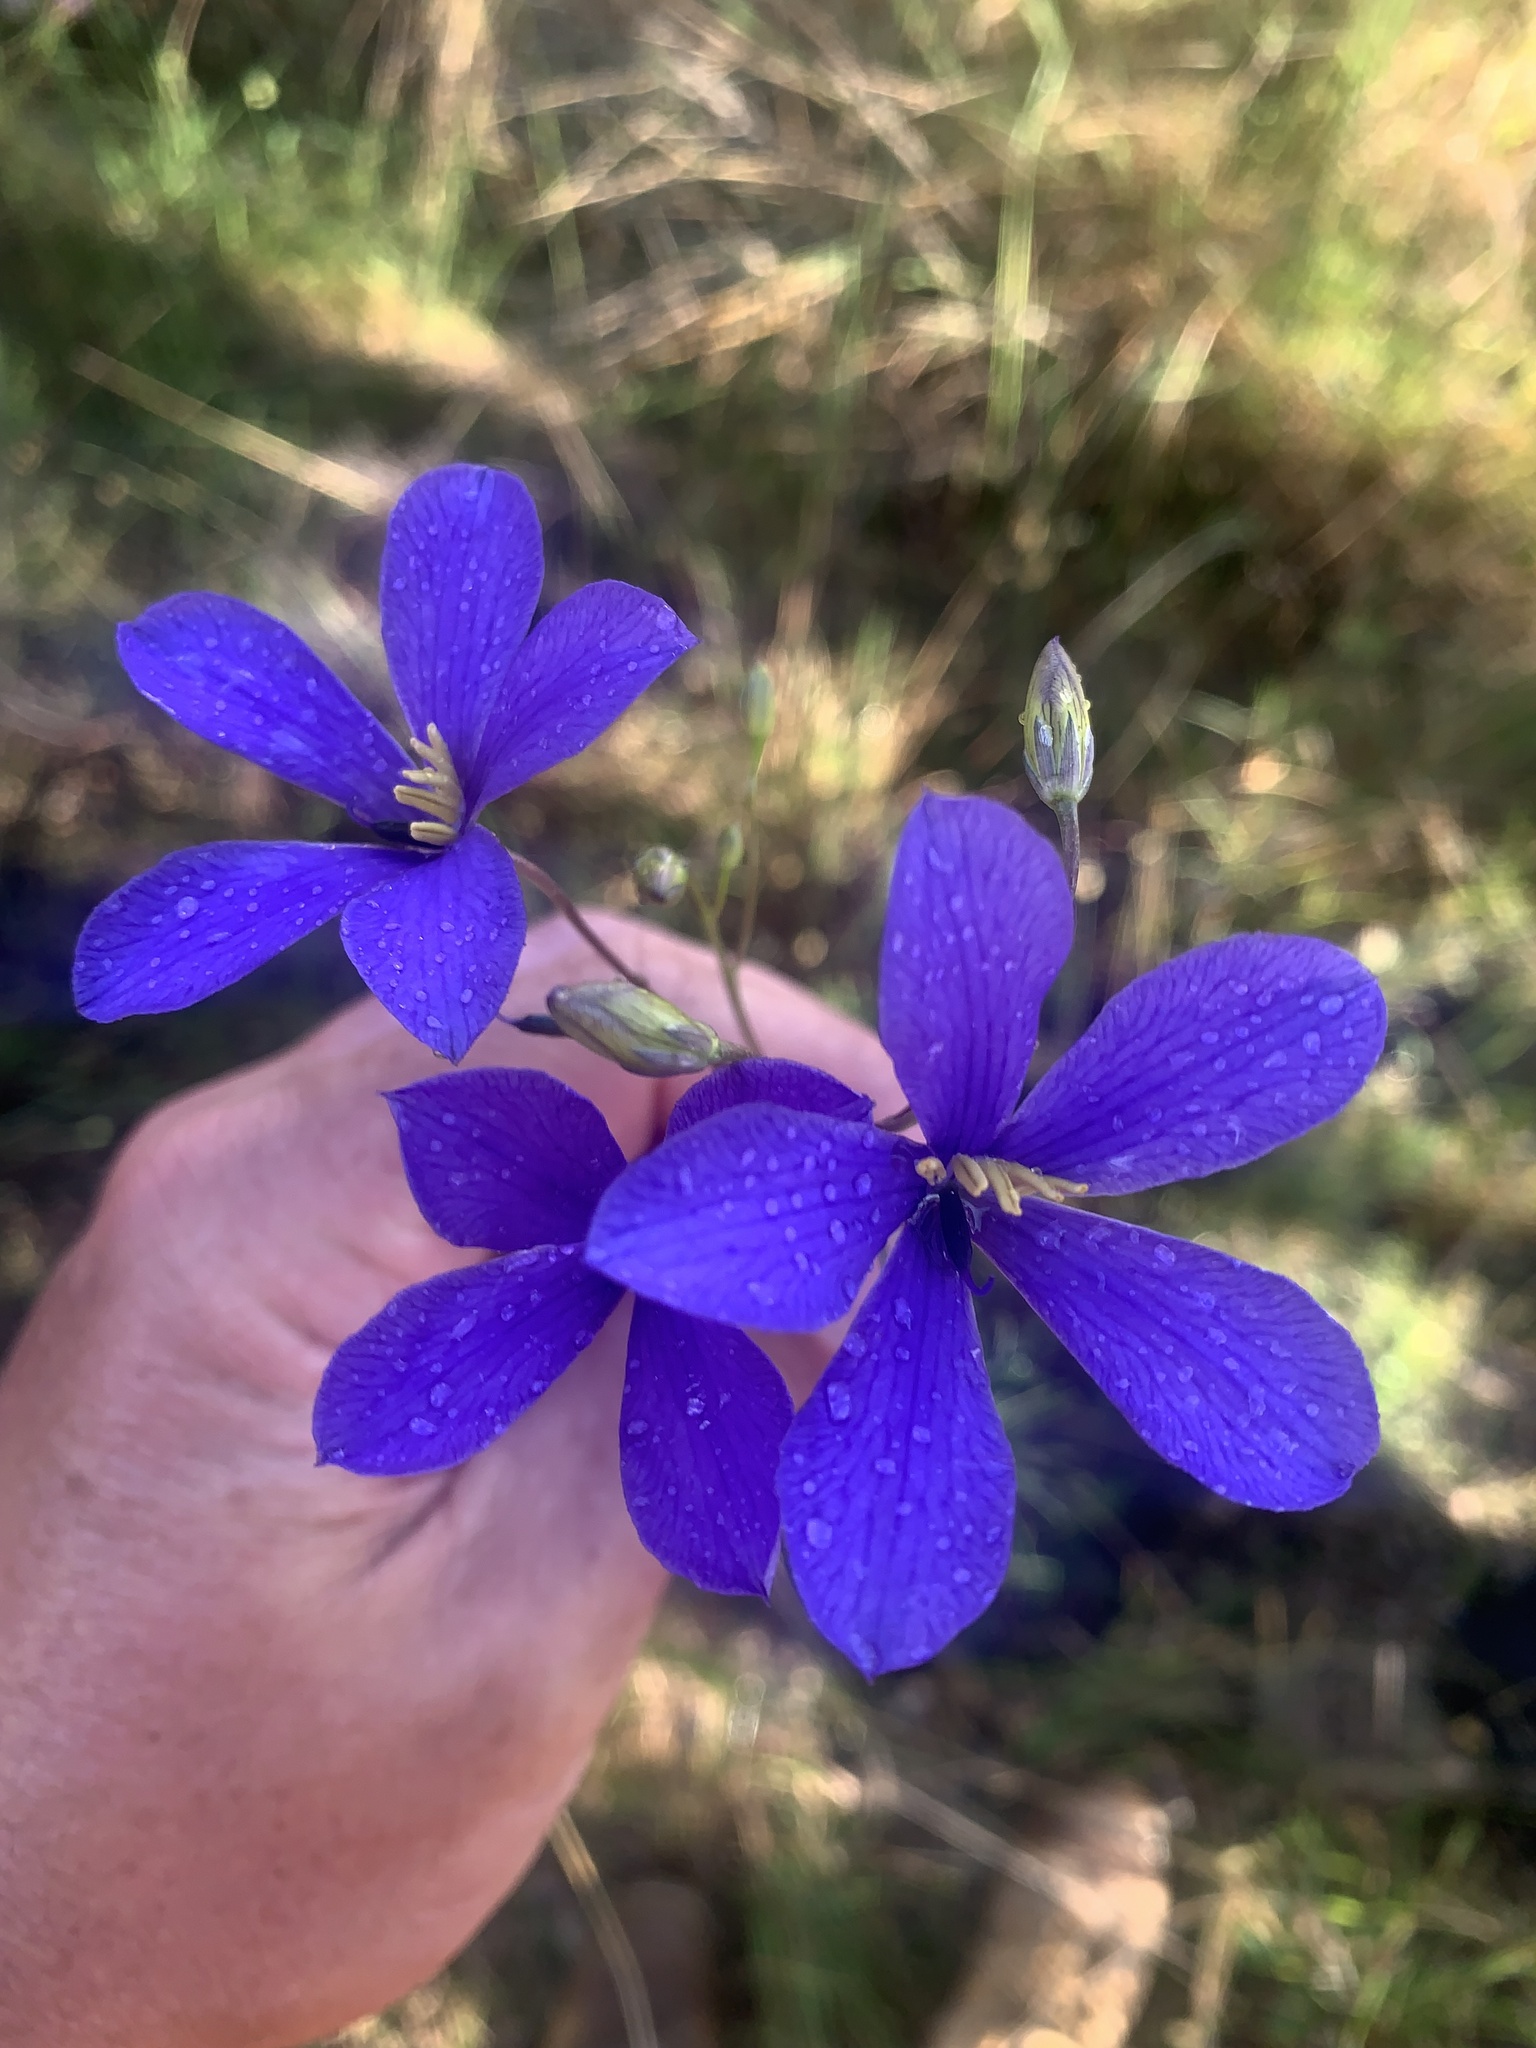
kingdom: Plantae
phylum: Tracheophyta
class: Magnoliopsida
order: Apiales
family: Pittosporaceae
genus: Cheiranthera
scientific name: Cheiranthera linearis
